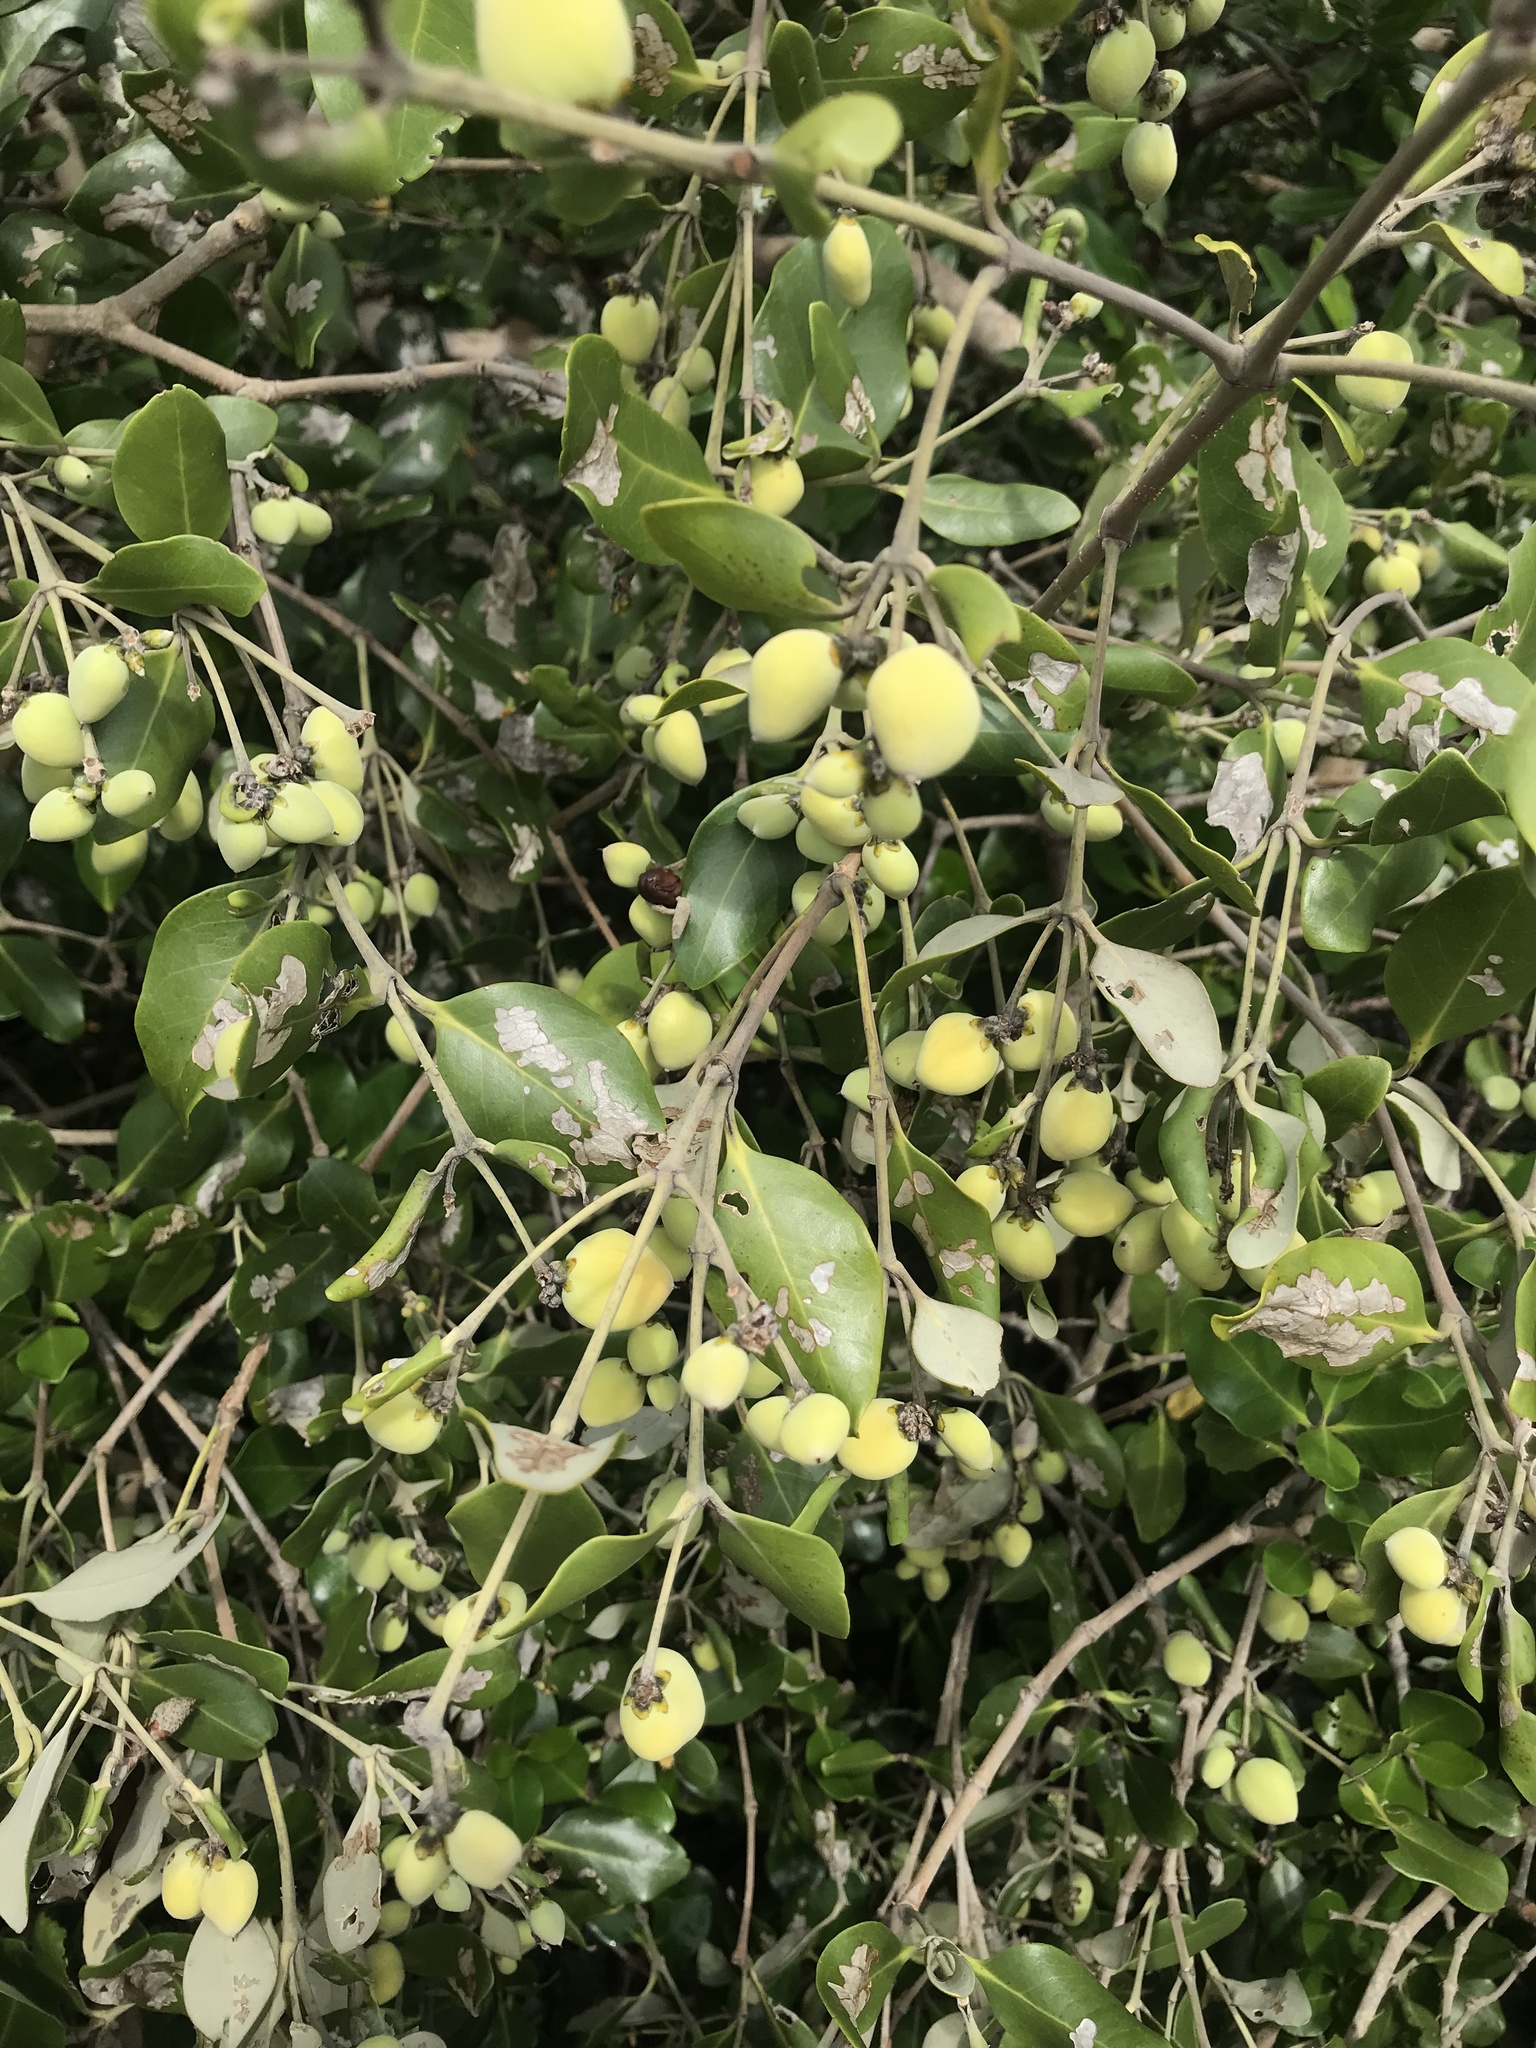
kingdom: Plantae
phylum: Tracheophyta
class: Magnoliopsida
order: Lamiales
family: Acanthaceae
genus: Avicennia
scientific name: Avicennia marina
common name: Gray mangrove
